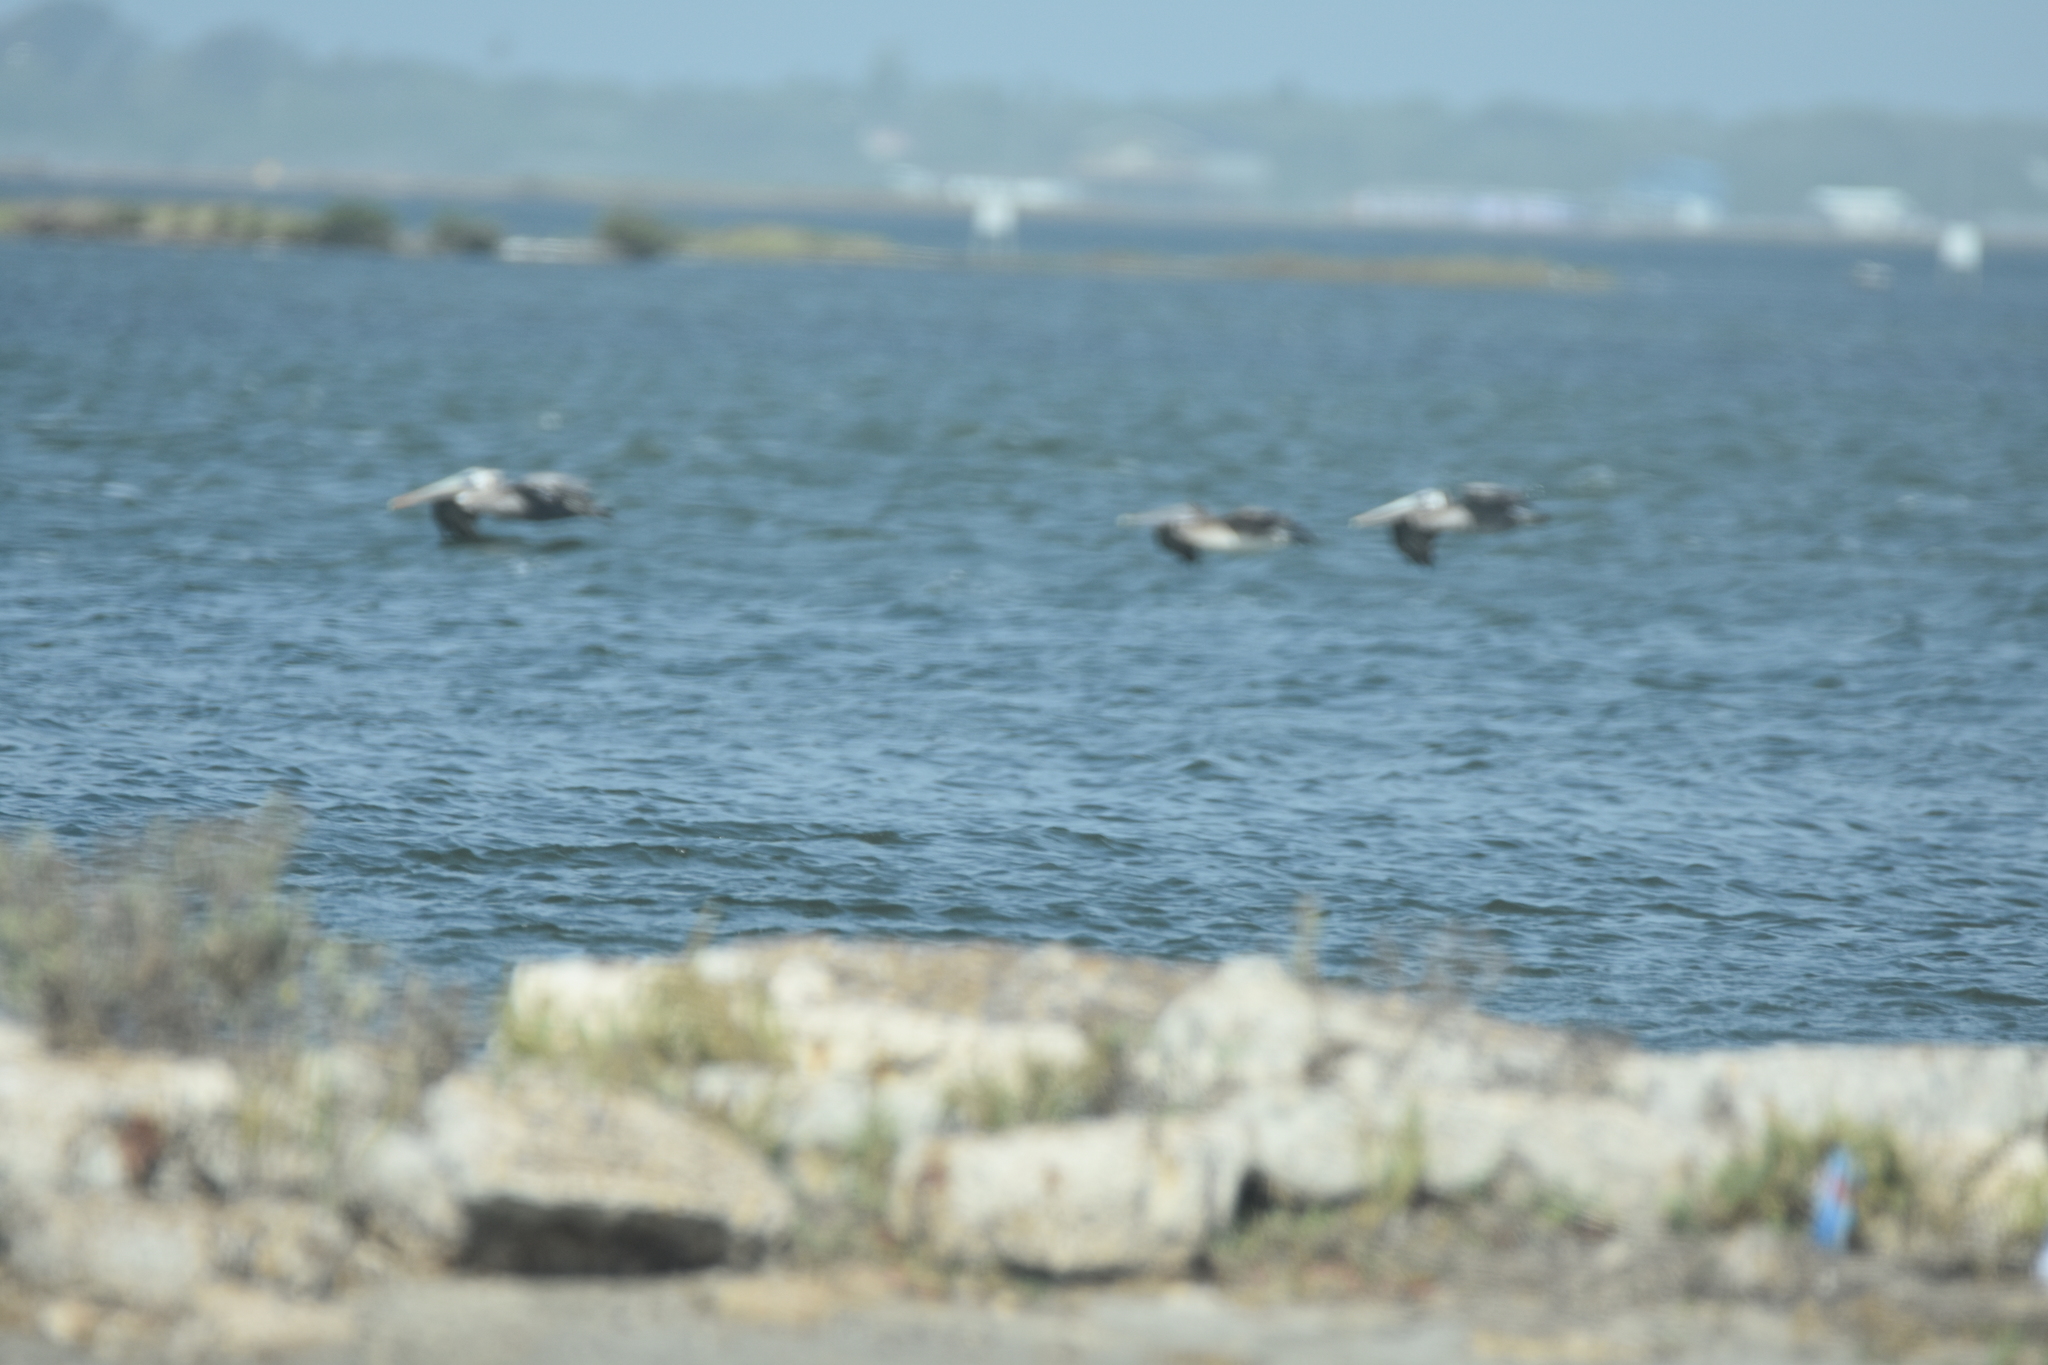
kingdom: Animalia
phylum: Chordata
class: Aves
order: Pelecaniformes
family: Pelecanidae
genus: Pelecanus
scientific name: Pelecanus occidentalis
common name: Brown pelican
